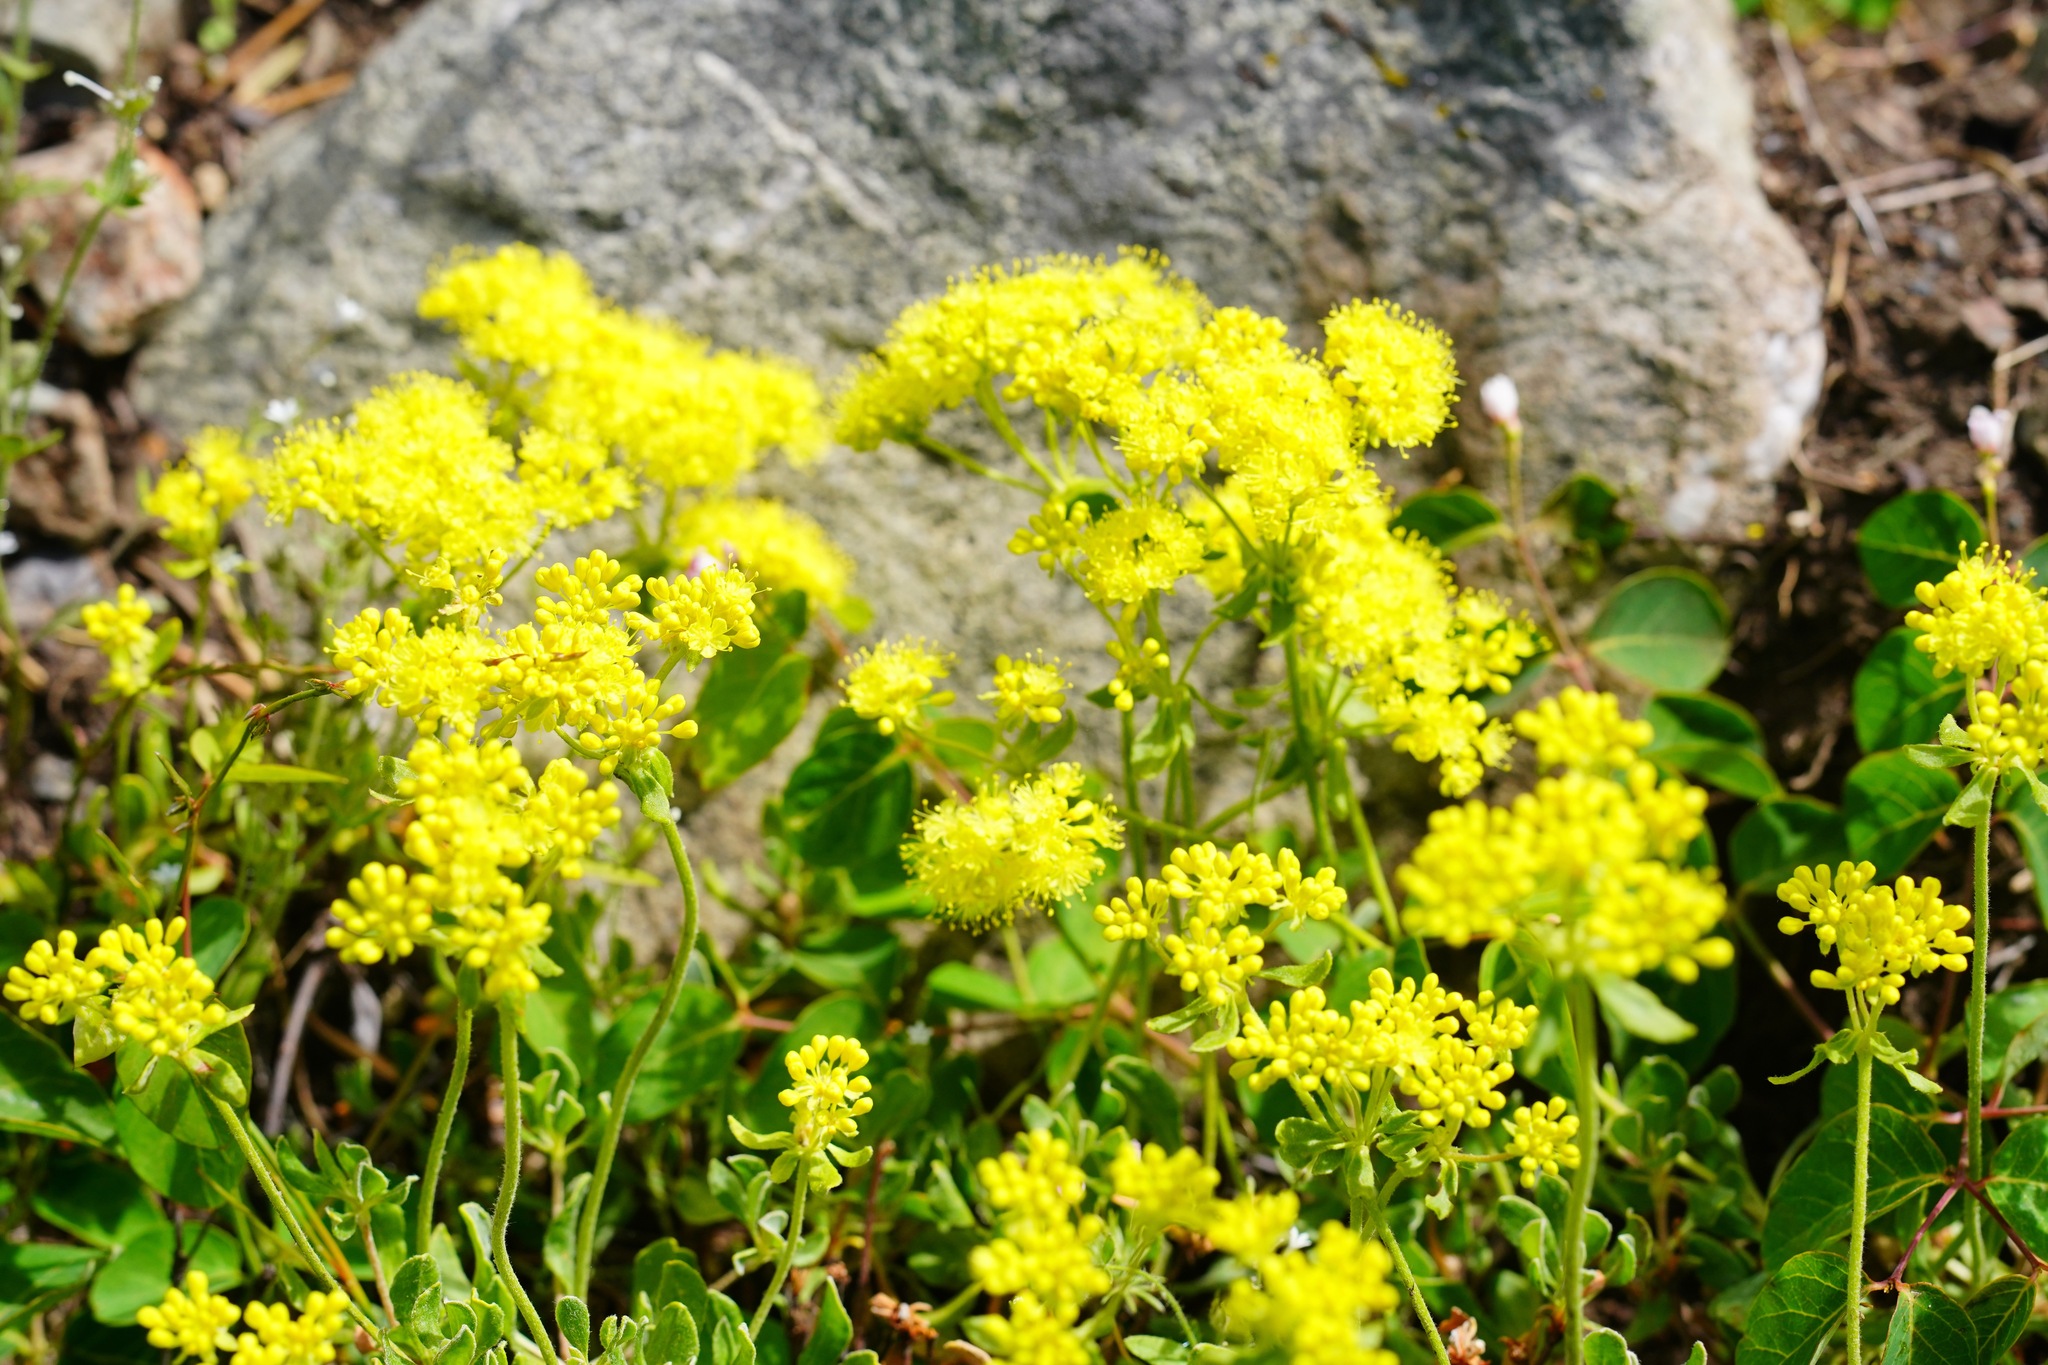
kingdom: Plantae
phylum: Tracheophyta
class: Magnoliopsida
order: Caryophyllales
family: Polygonaceae
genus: Eriogonum
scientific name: Eriogonum umbellatum
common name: Sulfur-buckwheat
